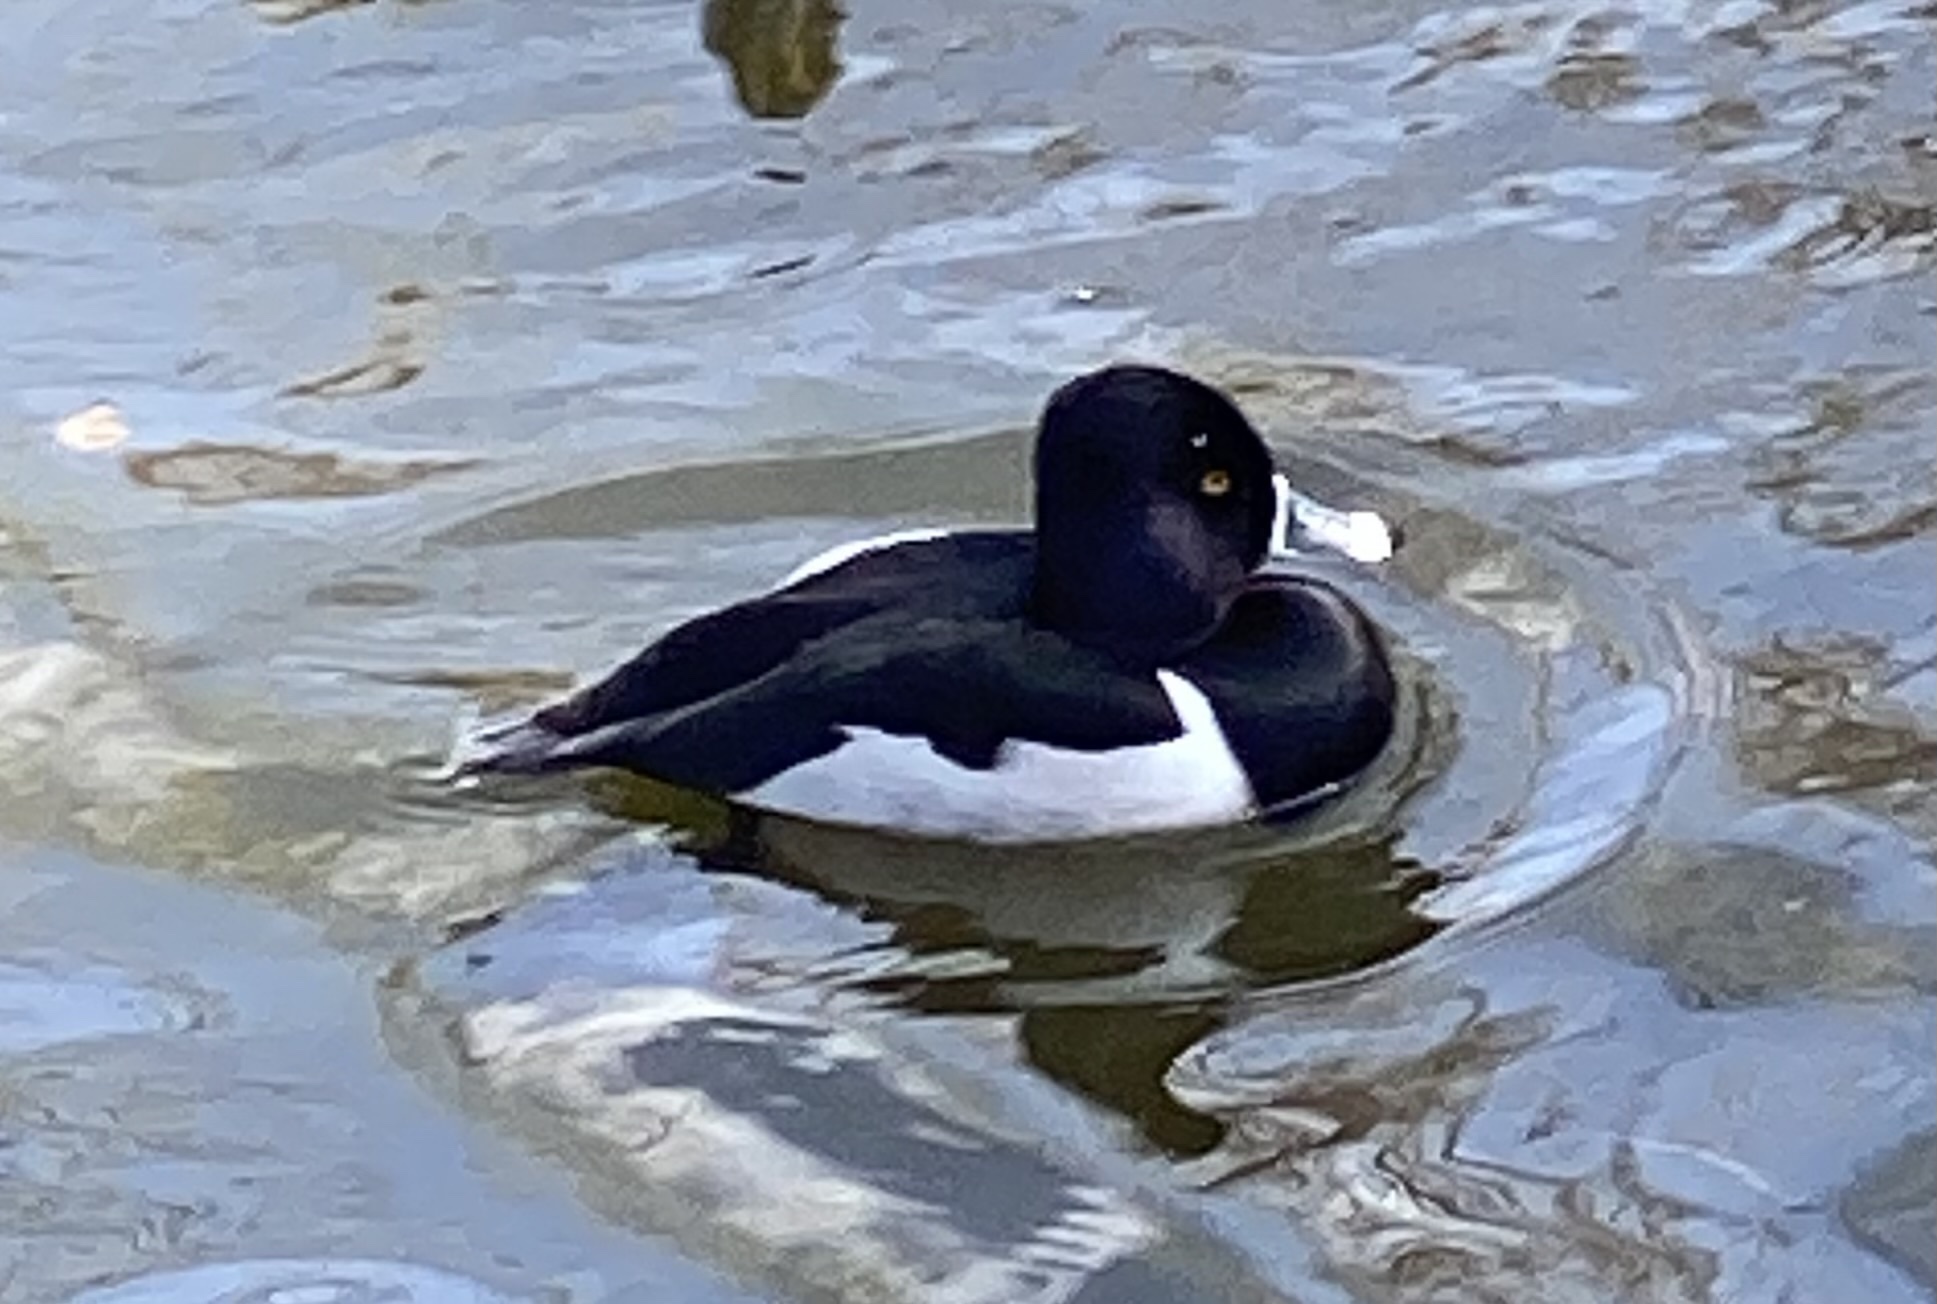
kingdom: Animalia
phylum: Chordata
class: Aves
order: Anseriformes
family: Anatidae
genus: Aythya
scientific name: Aythya collaris
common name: Ring-necked duck
